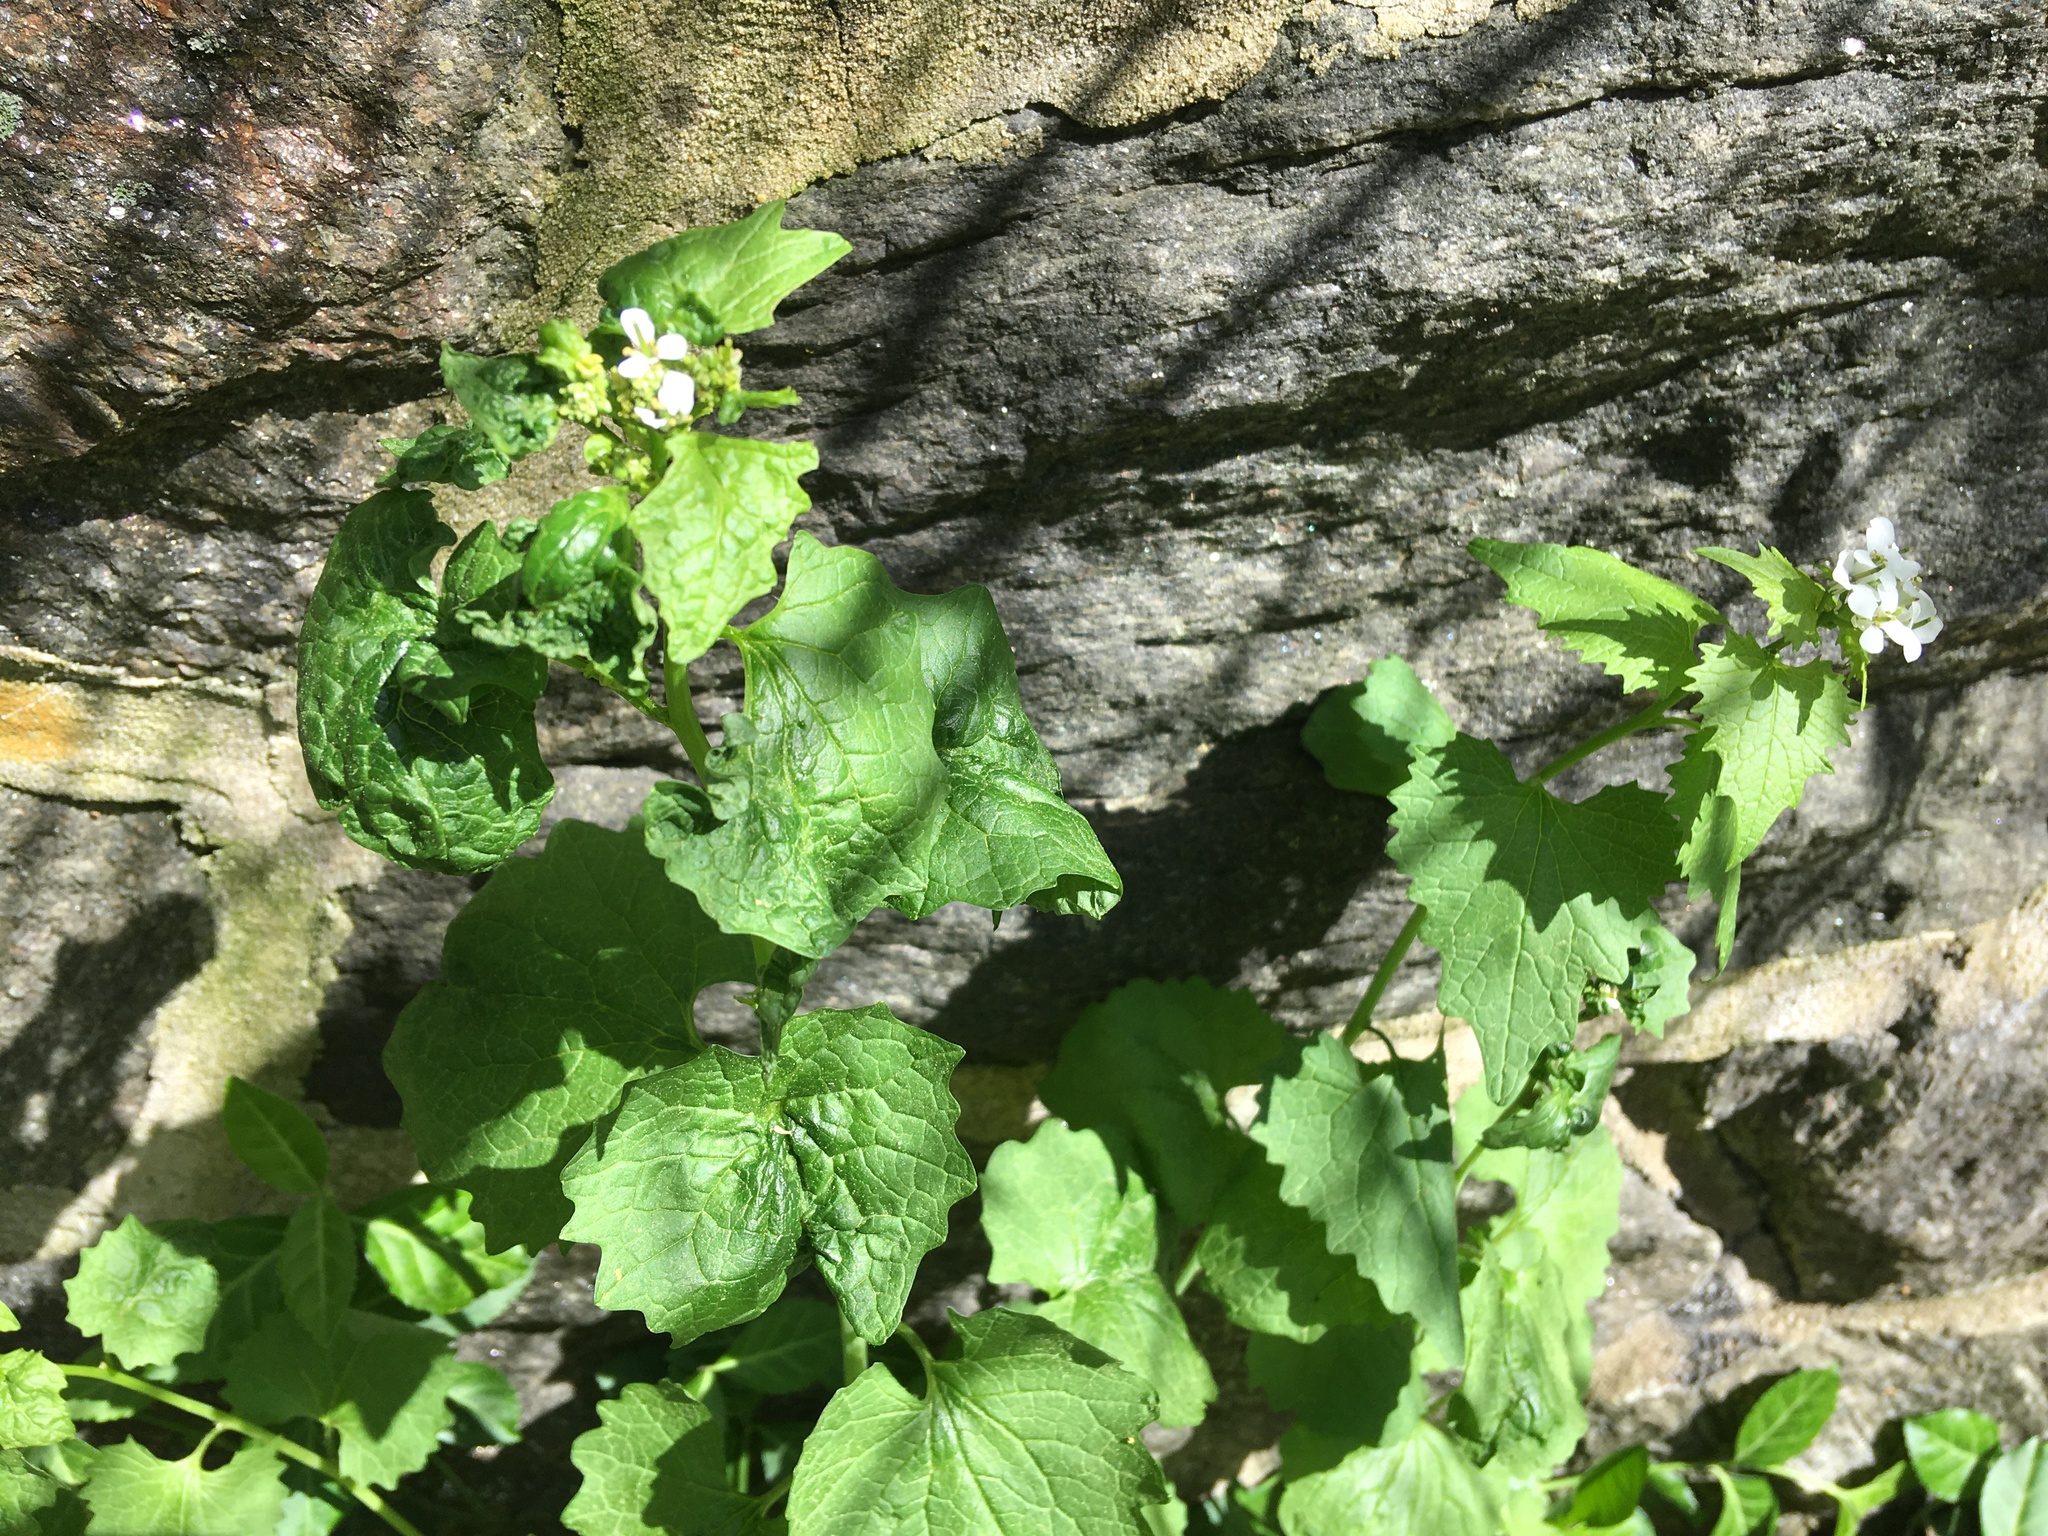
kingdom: Plantae
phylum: Tracheophyta
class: Magnoliopsida
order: Brassicales
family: Brassicaceae
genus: Alliaria
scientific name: Alliaria petiolata
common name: Garlic mustard
